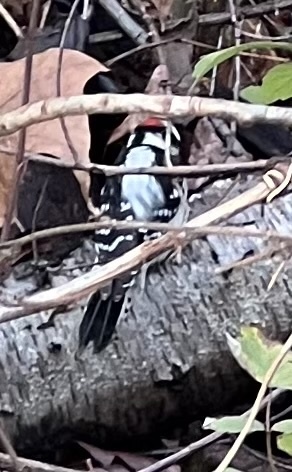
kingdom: Animalia
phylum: Chordata
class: Aves
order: Piciformes
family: Picidae
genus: Dryobates
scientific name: Dryobates pubescens
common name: Downy woodpecker
